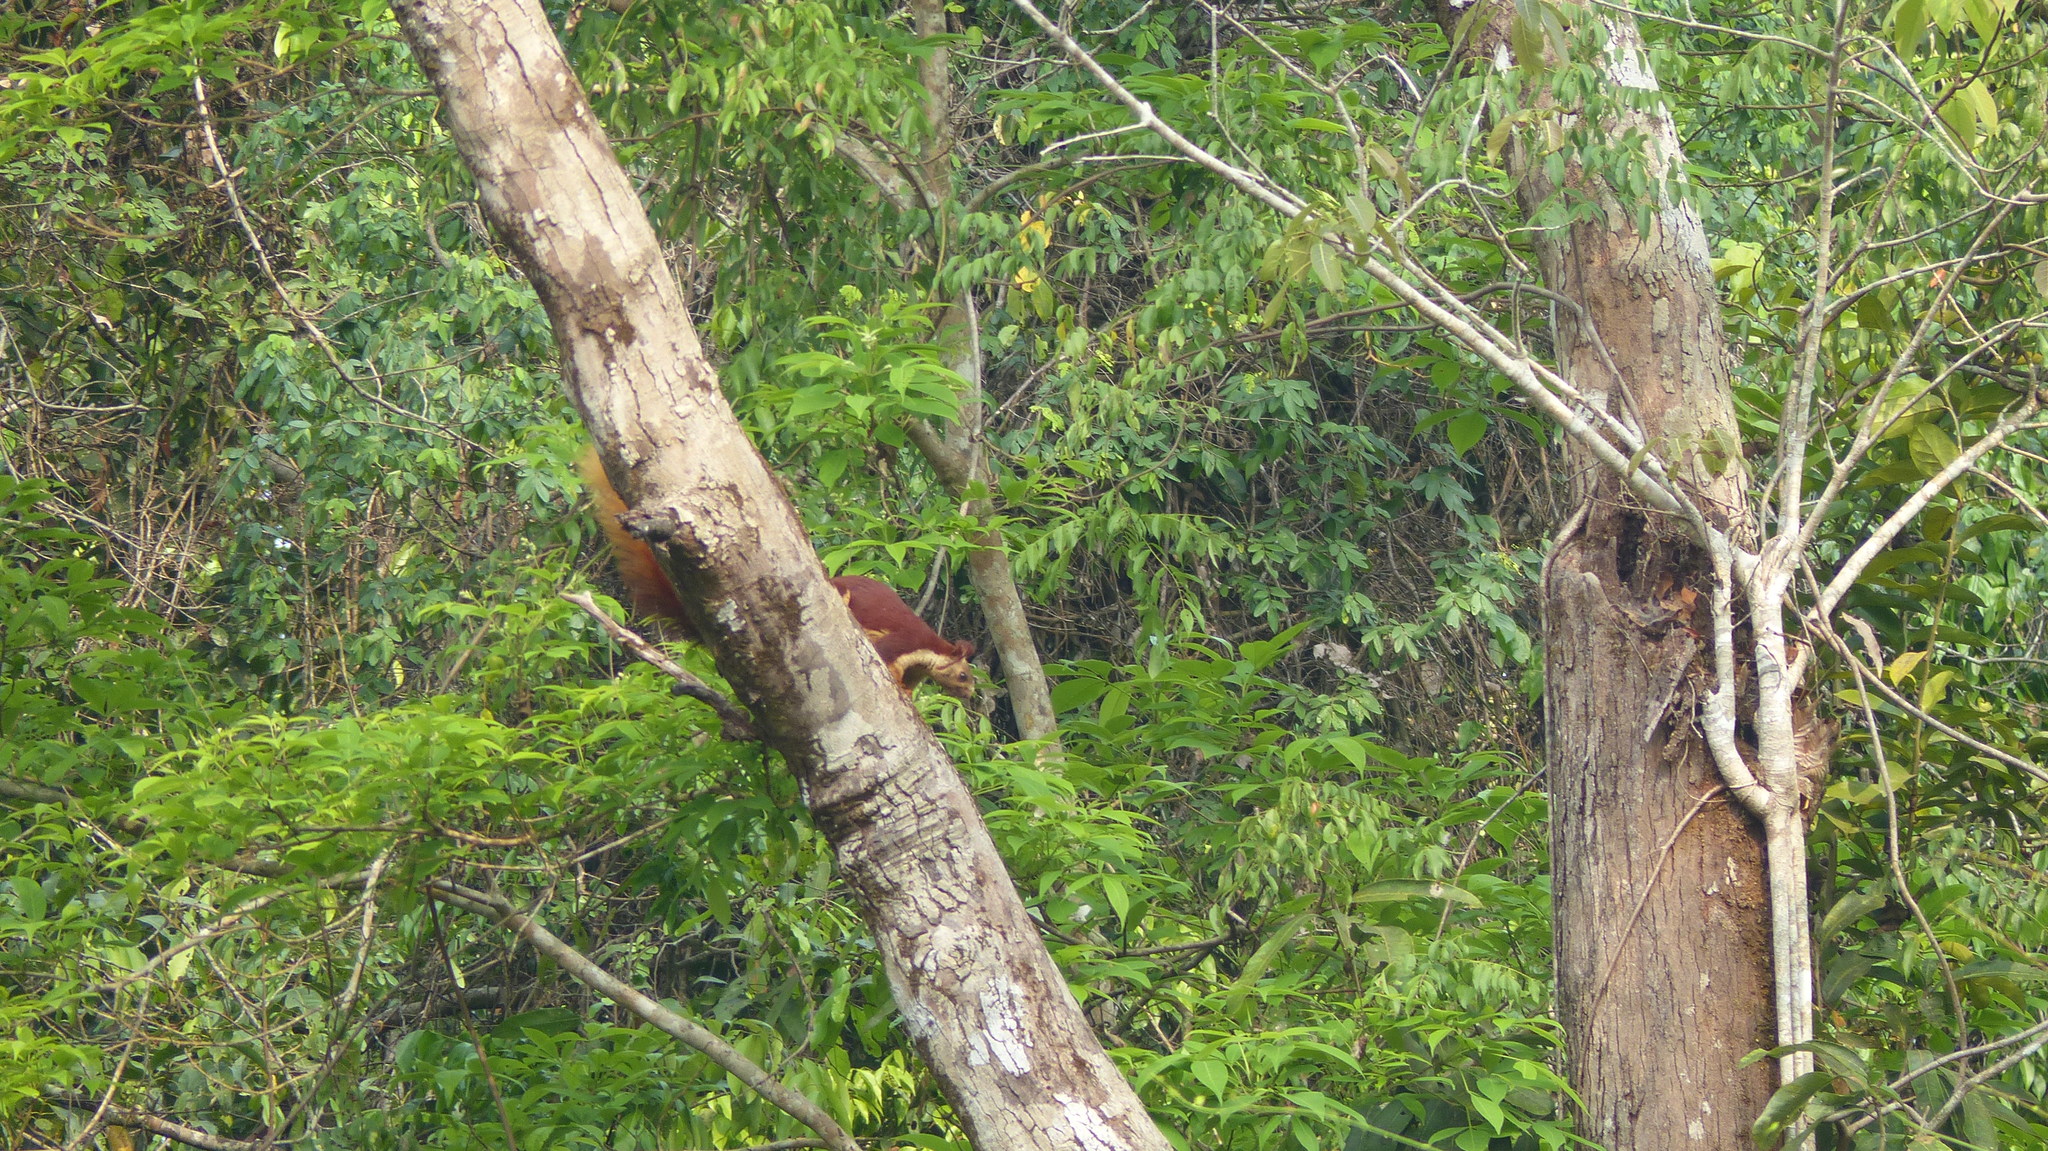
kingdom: Animalia
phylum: Chordata
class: Mammalia
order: Rodentia
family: Sciuridae
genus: Ratufa
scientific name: Ratufa indica
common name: Indian giant squirrel
